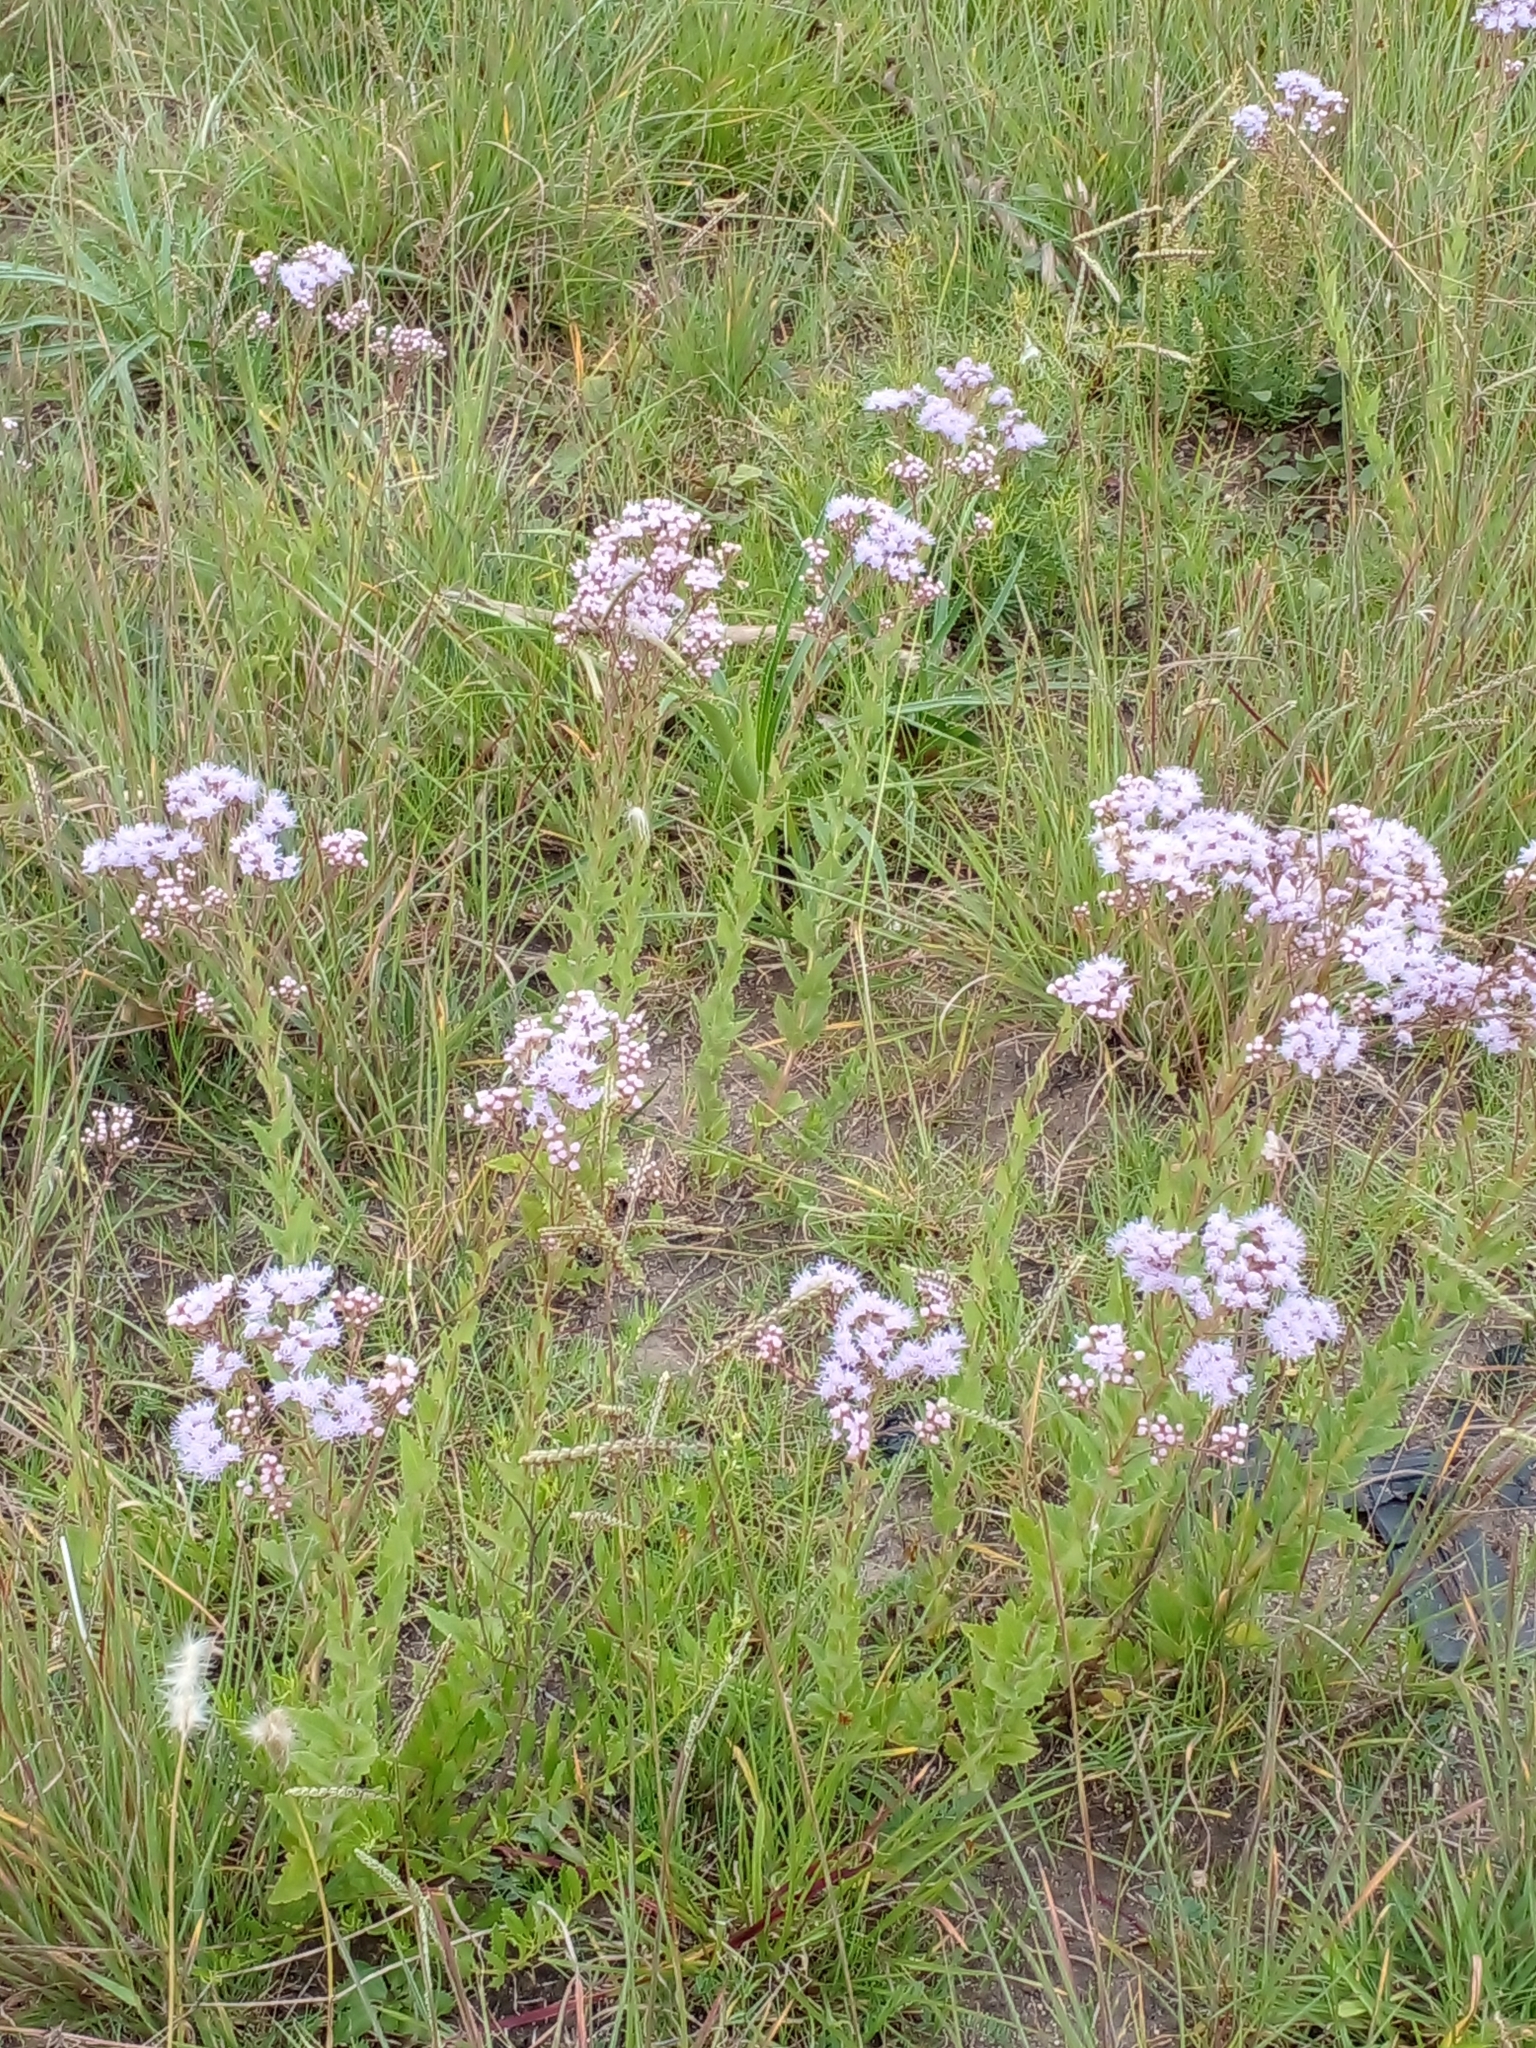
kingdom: Plantae
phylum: Tracheophyta
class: Magnoliopsida
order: Asterales
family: Asteraceae
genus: Chromolaena
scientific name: Chromolaena hirsuta
